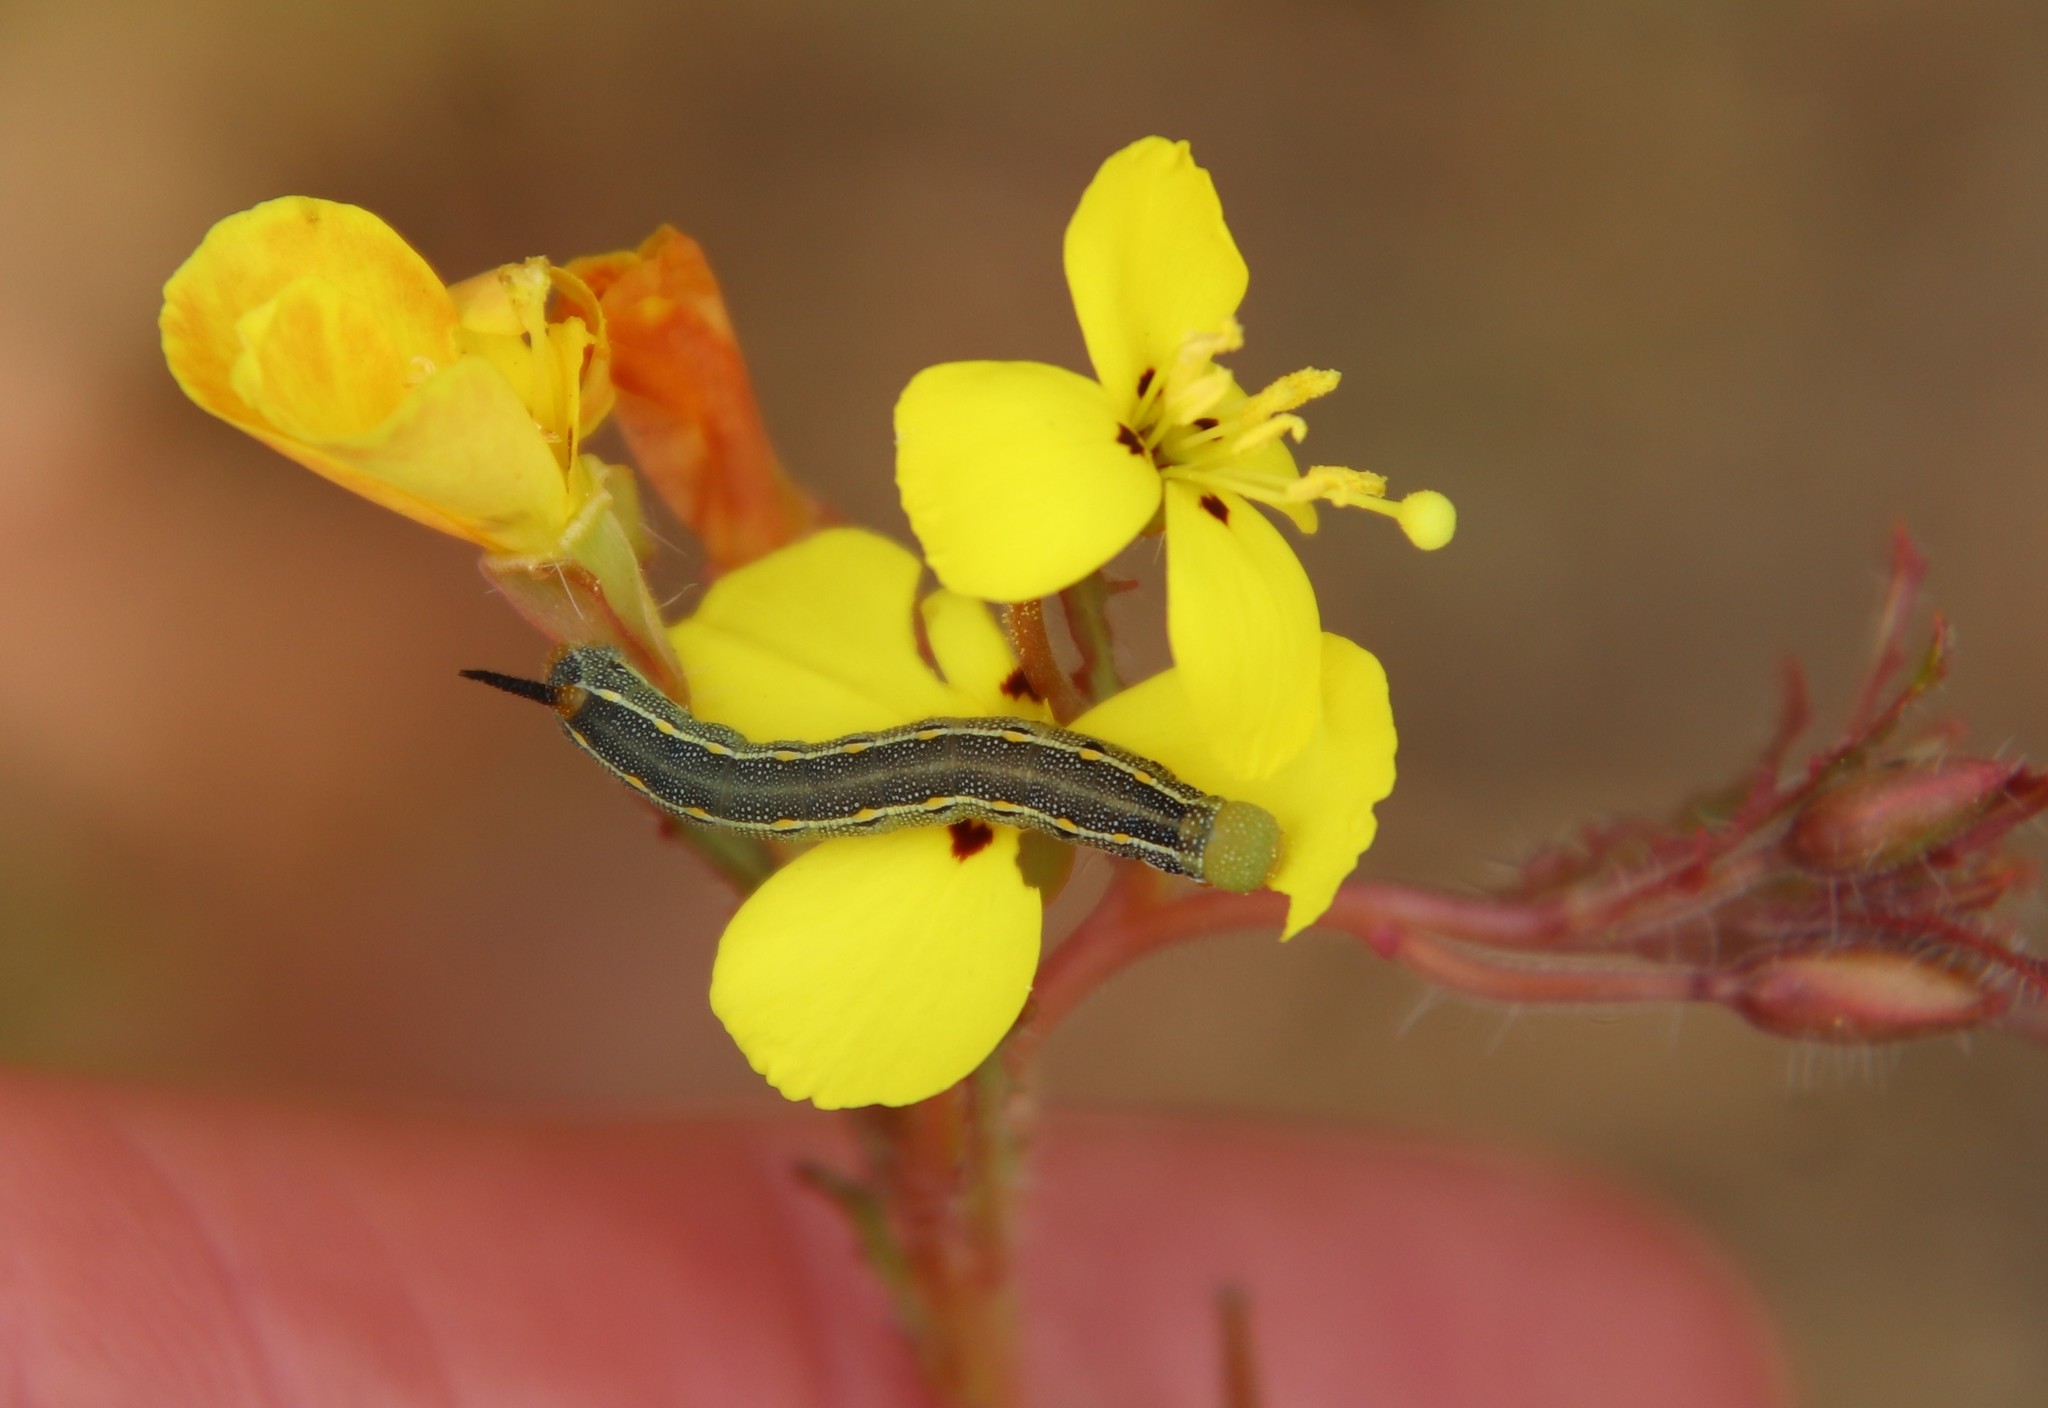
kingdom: Animalia
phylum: Arthropoda
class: Insecta
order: Lepidoptera
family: Sphingidae
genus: Hyles
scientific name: Hyles lineata
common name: White-lined sphinx
